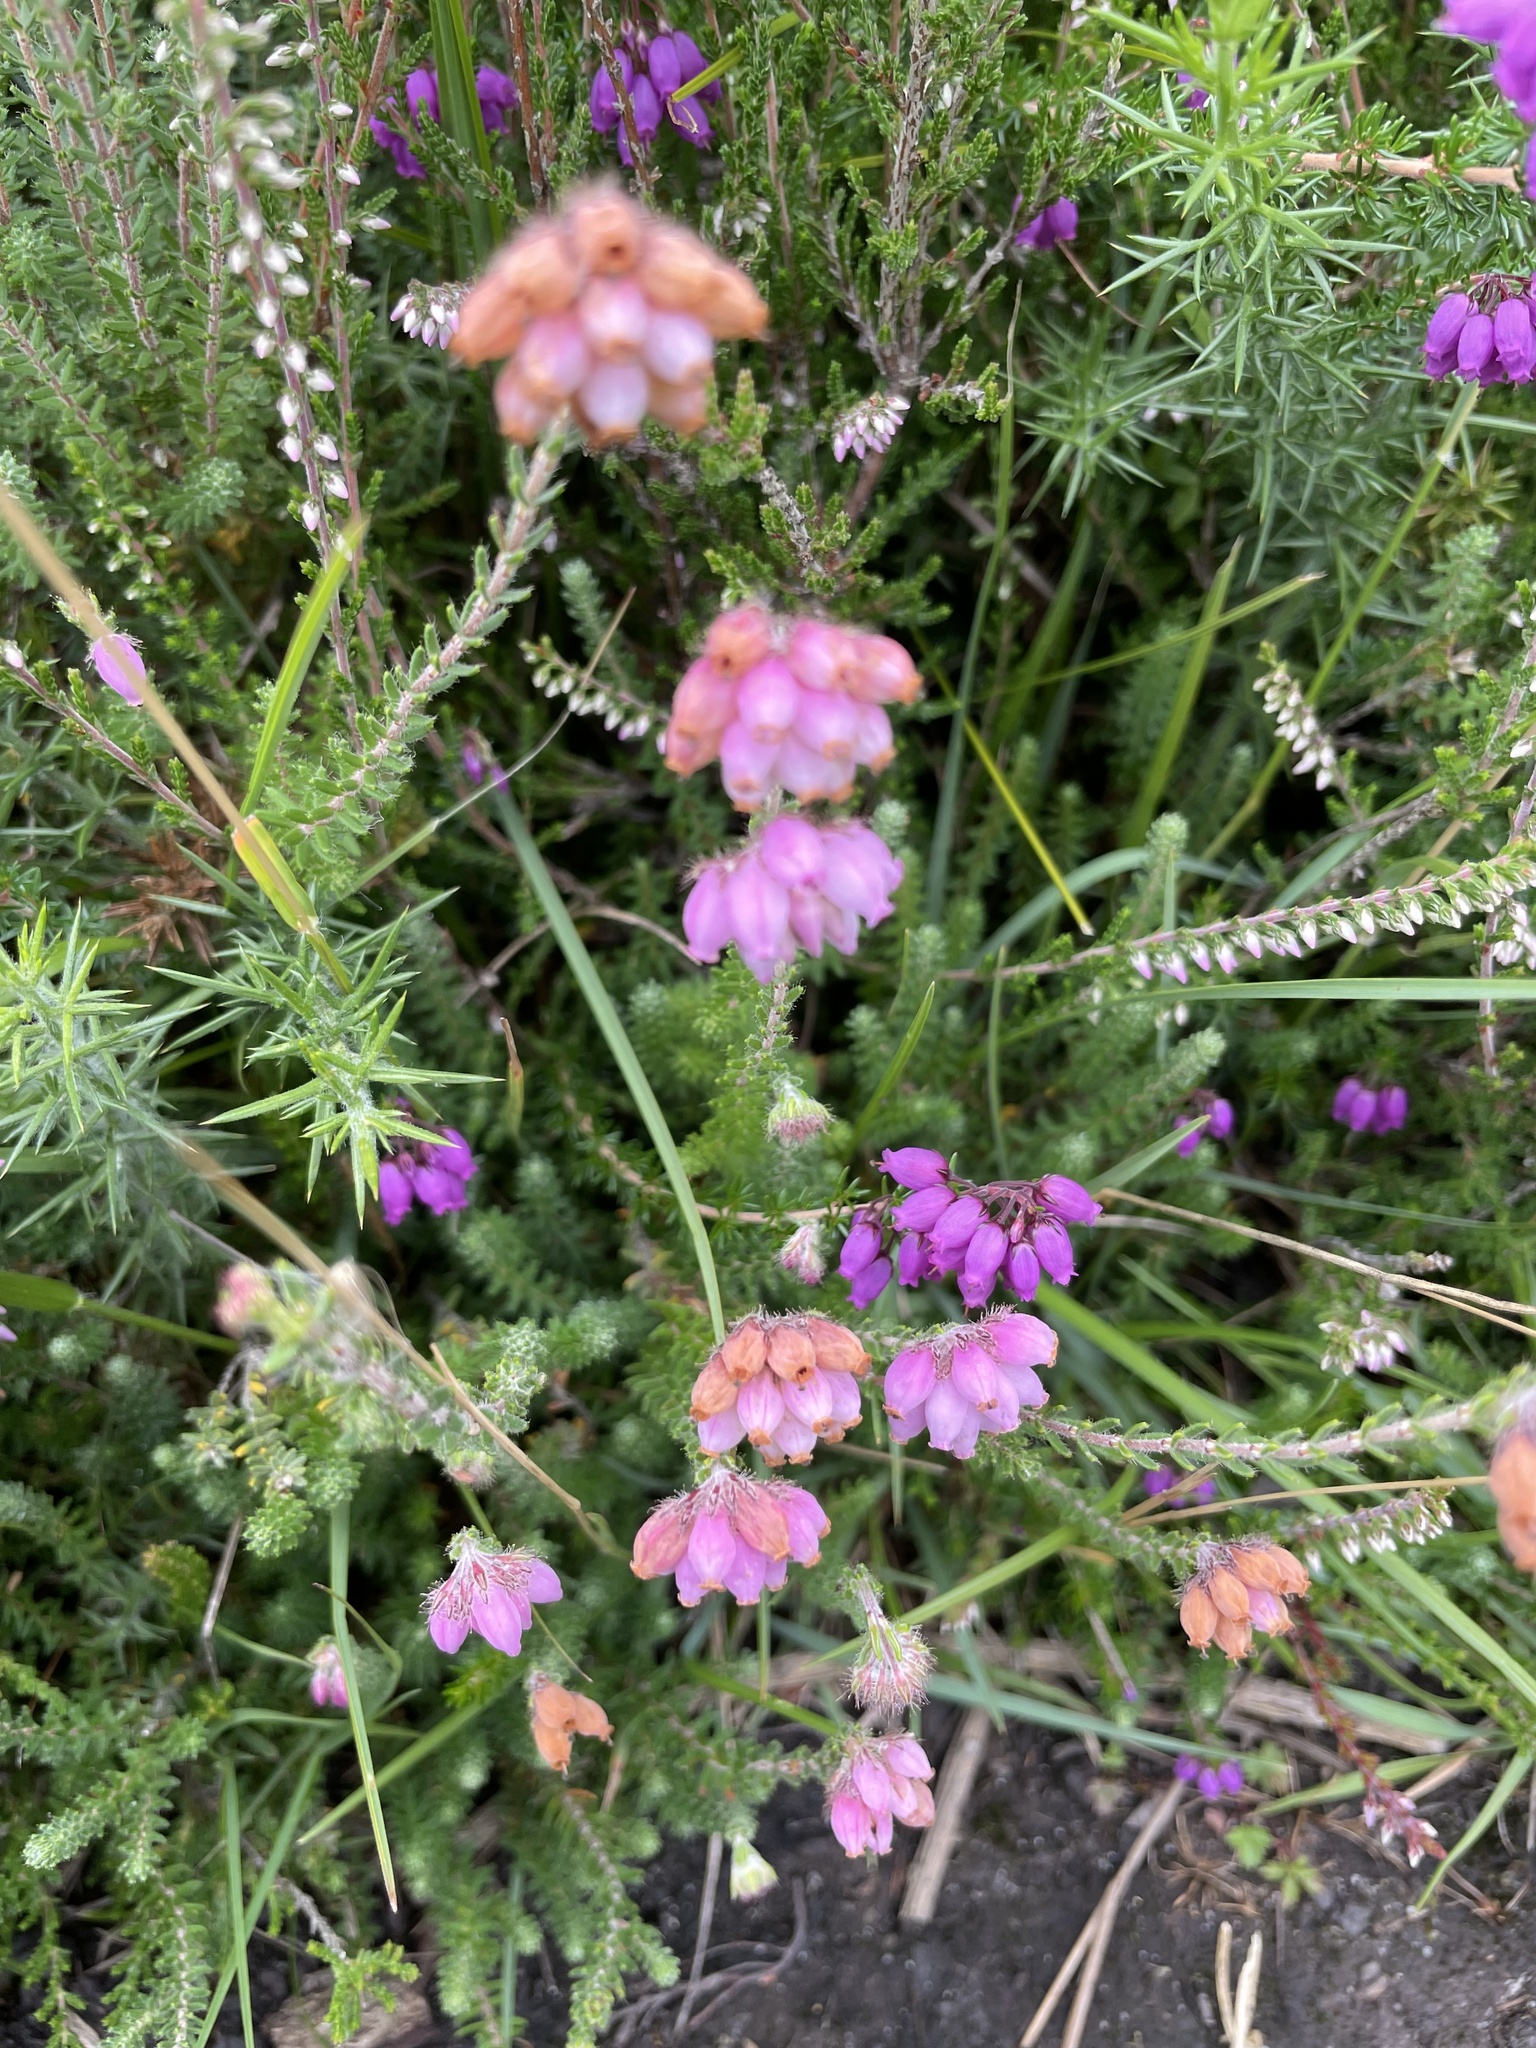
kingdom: Plantae
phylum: Tracheophyta
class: Magnoliopsida
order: Ericales
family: Ericaceae
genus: Erica
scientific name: Erica tetralix
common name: Cross-leaved heath
